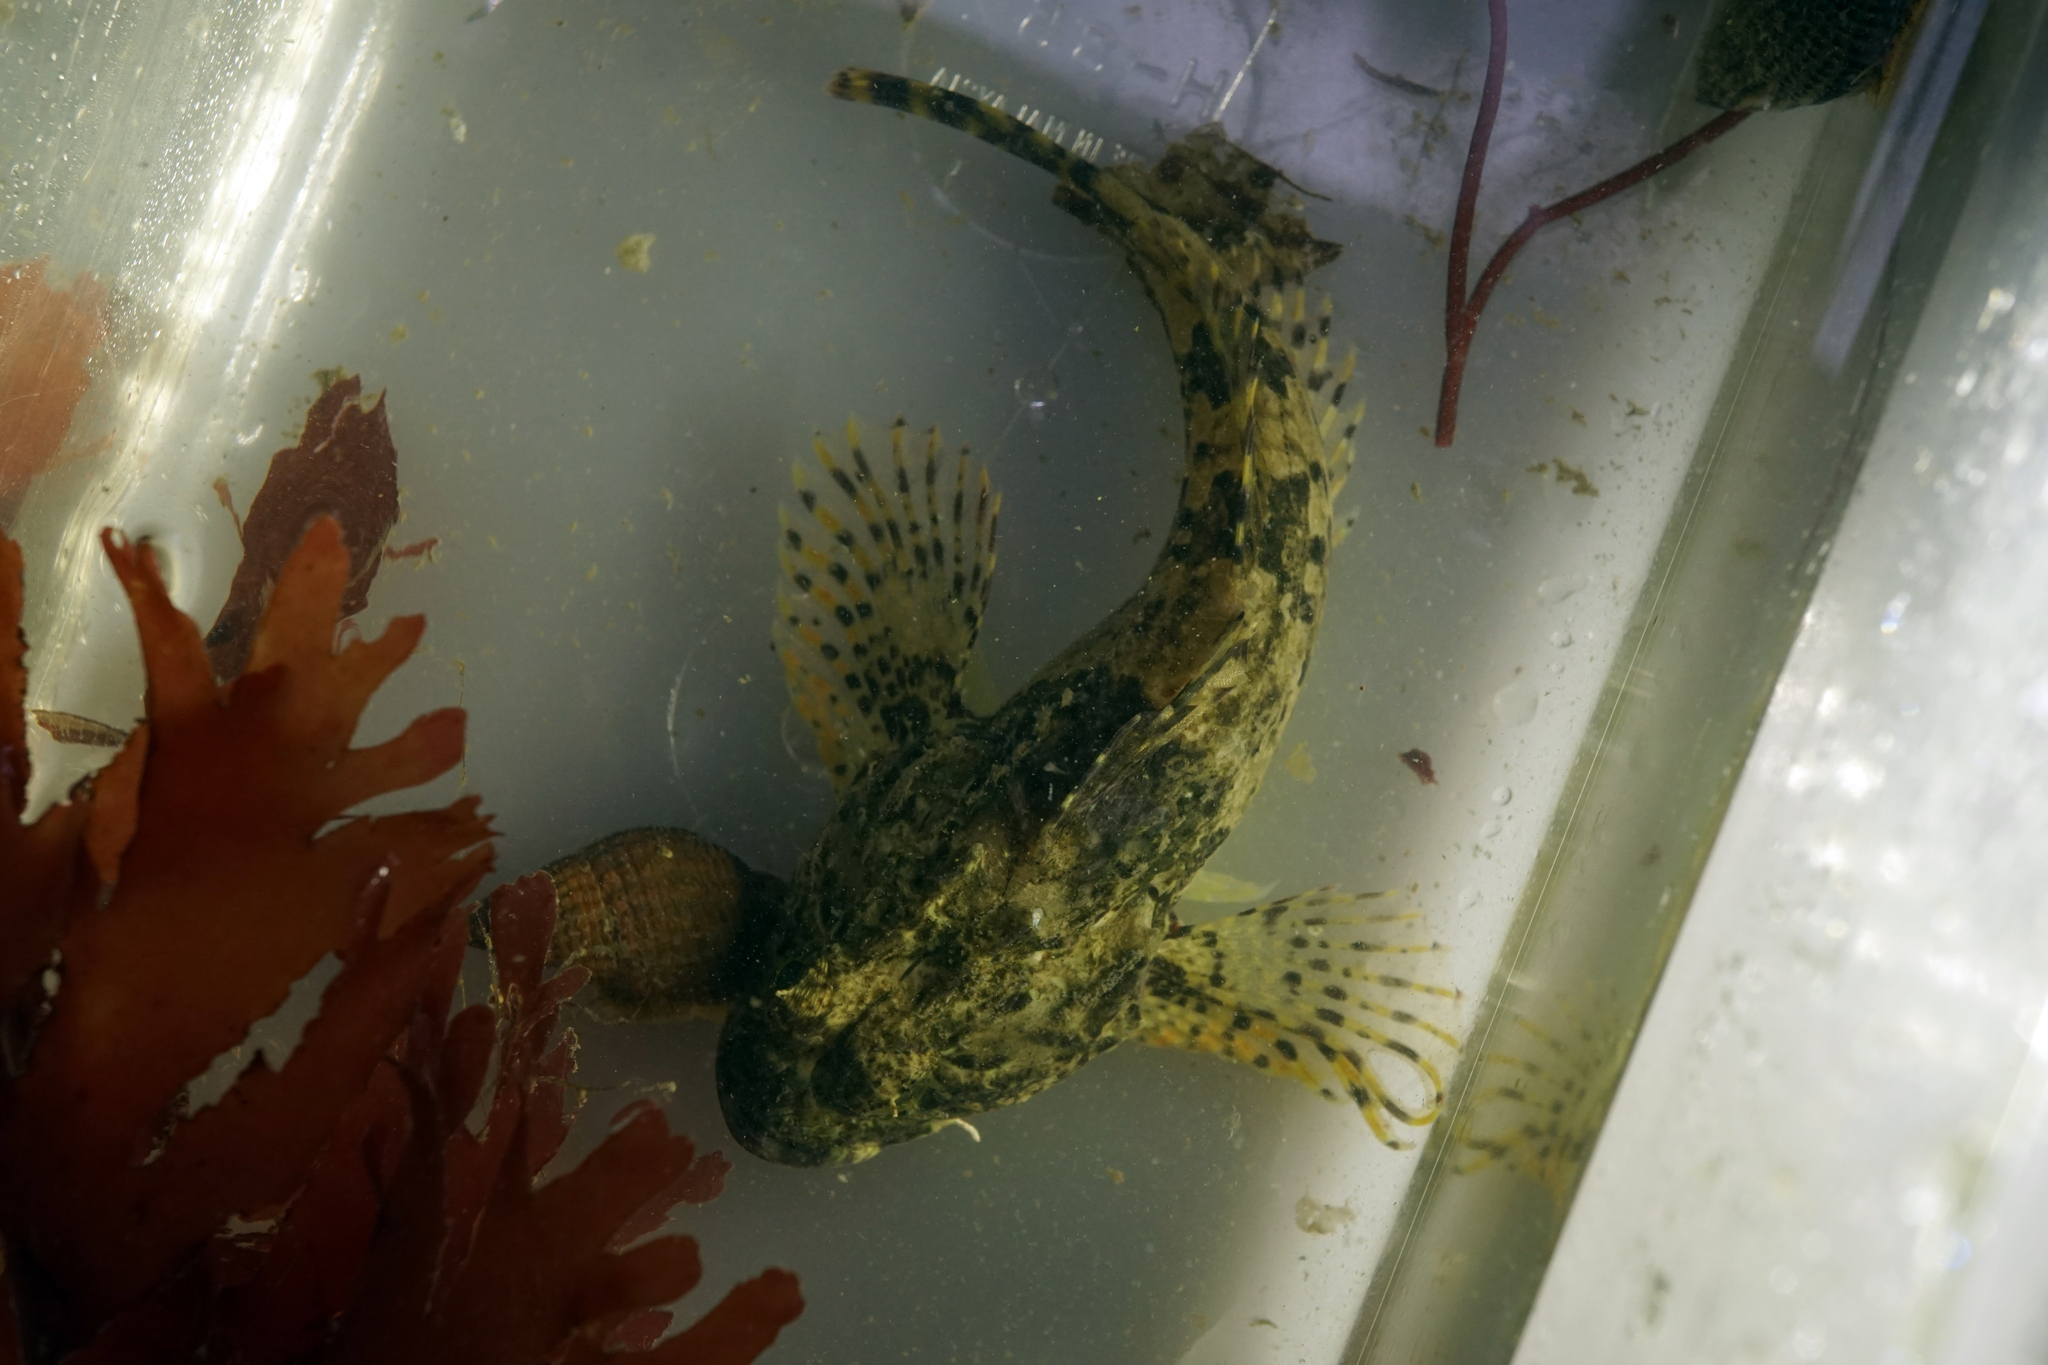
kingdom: Animalia
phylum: Chordata
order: Scorpaeniformes
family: Cottidae
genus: Taurulus
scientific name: Taurulus bubalis
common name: Sea scorpion
